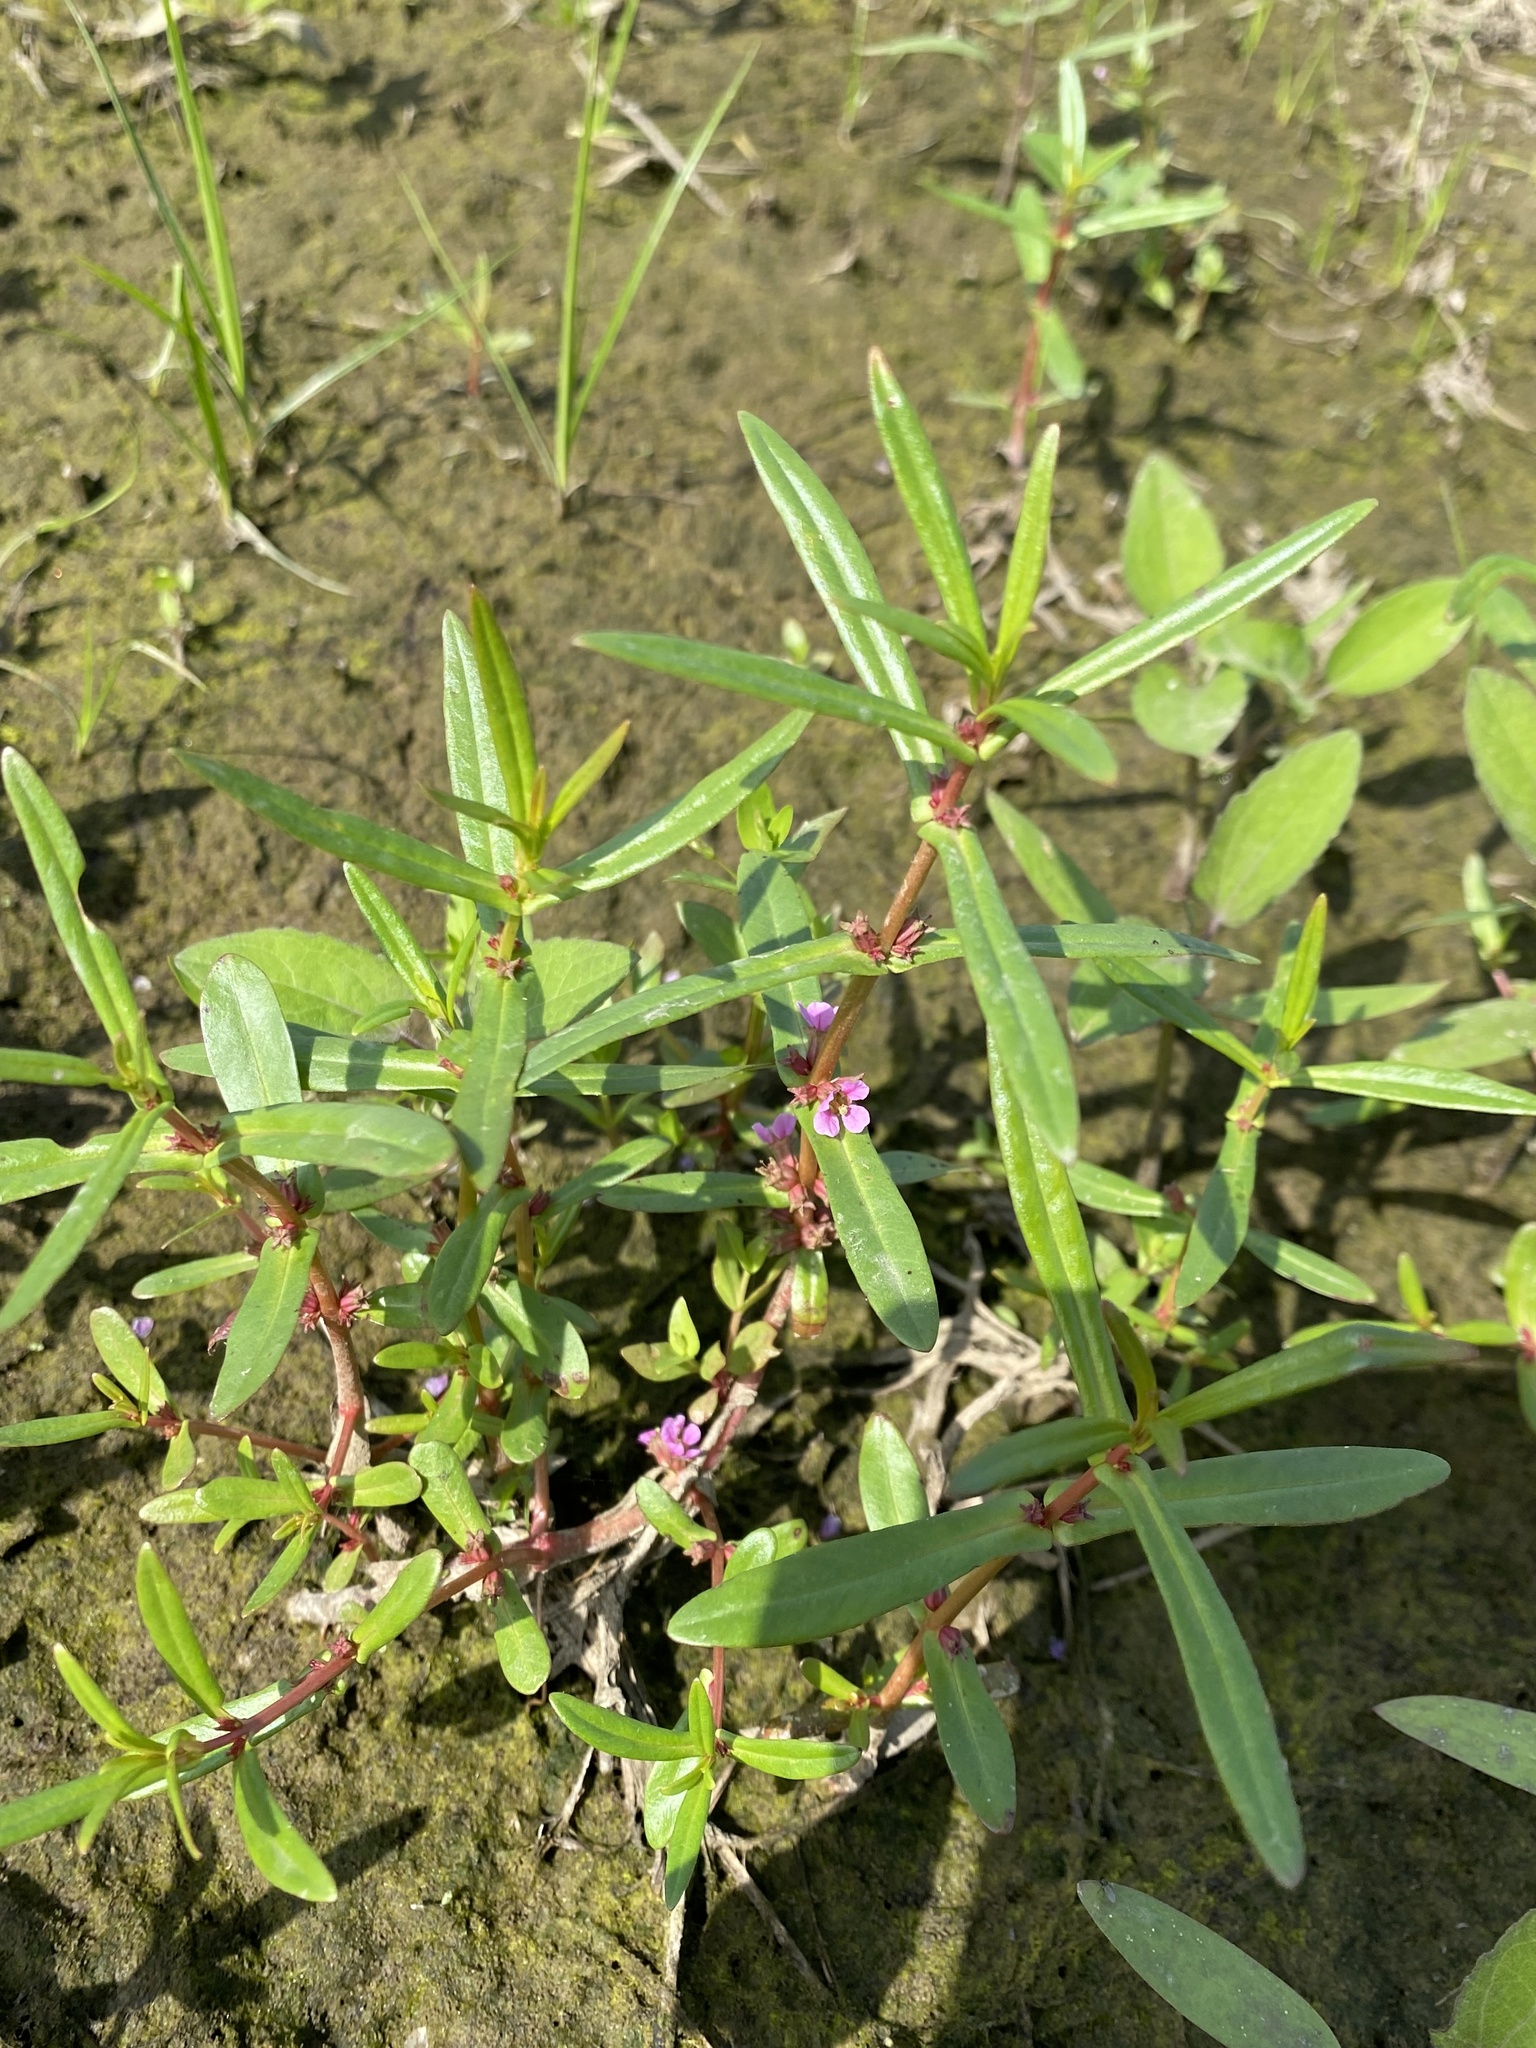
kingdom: Plantae
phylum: Tracheophyta
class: Magnoliopsida
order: Myrtales
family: Lythraceae
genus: Ammannia
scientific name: Ammannia coccinea
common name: Valley redstem
